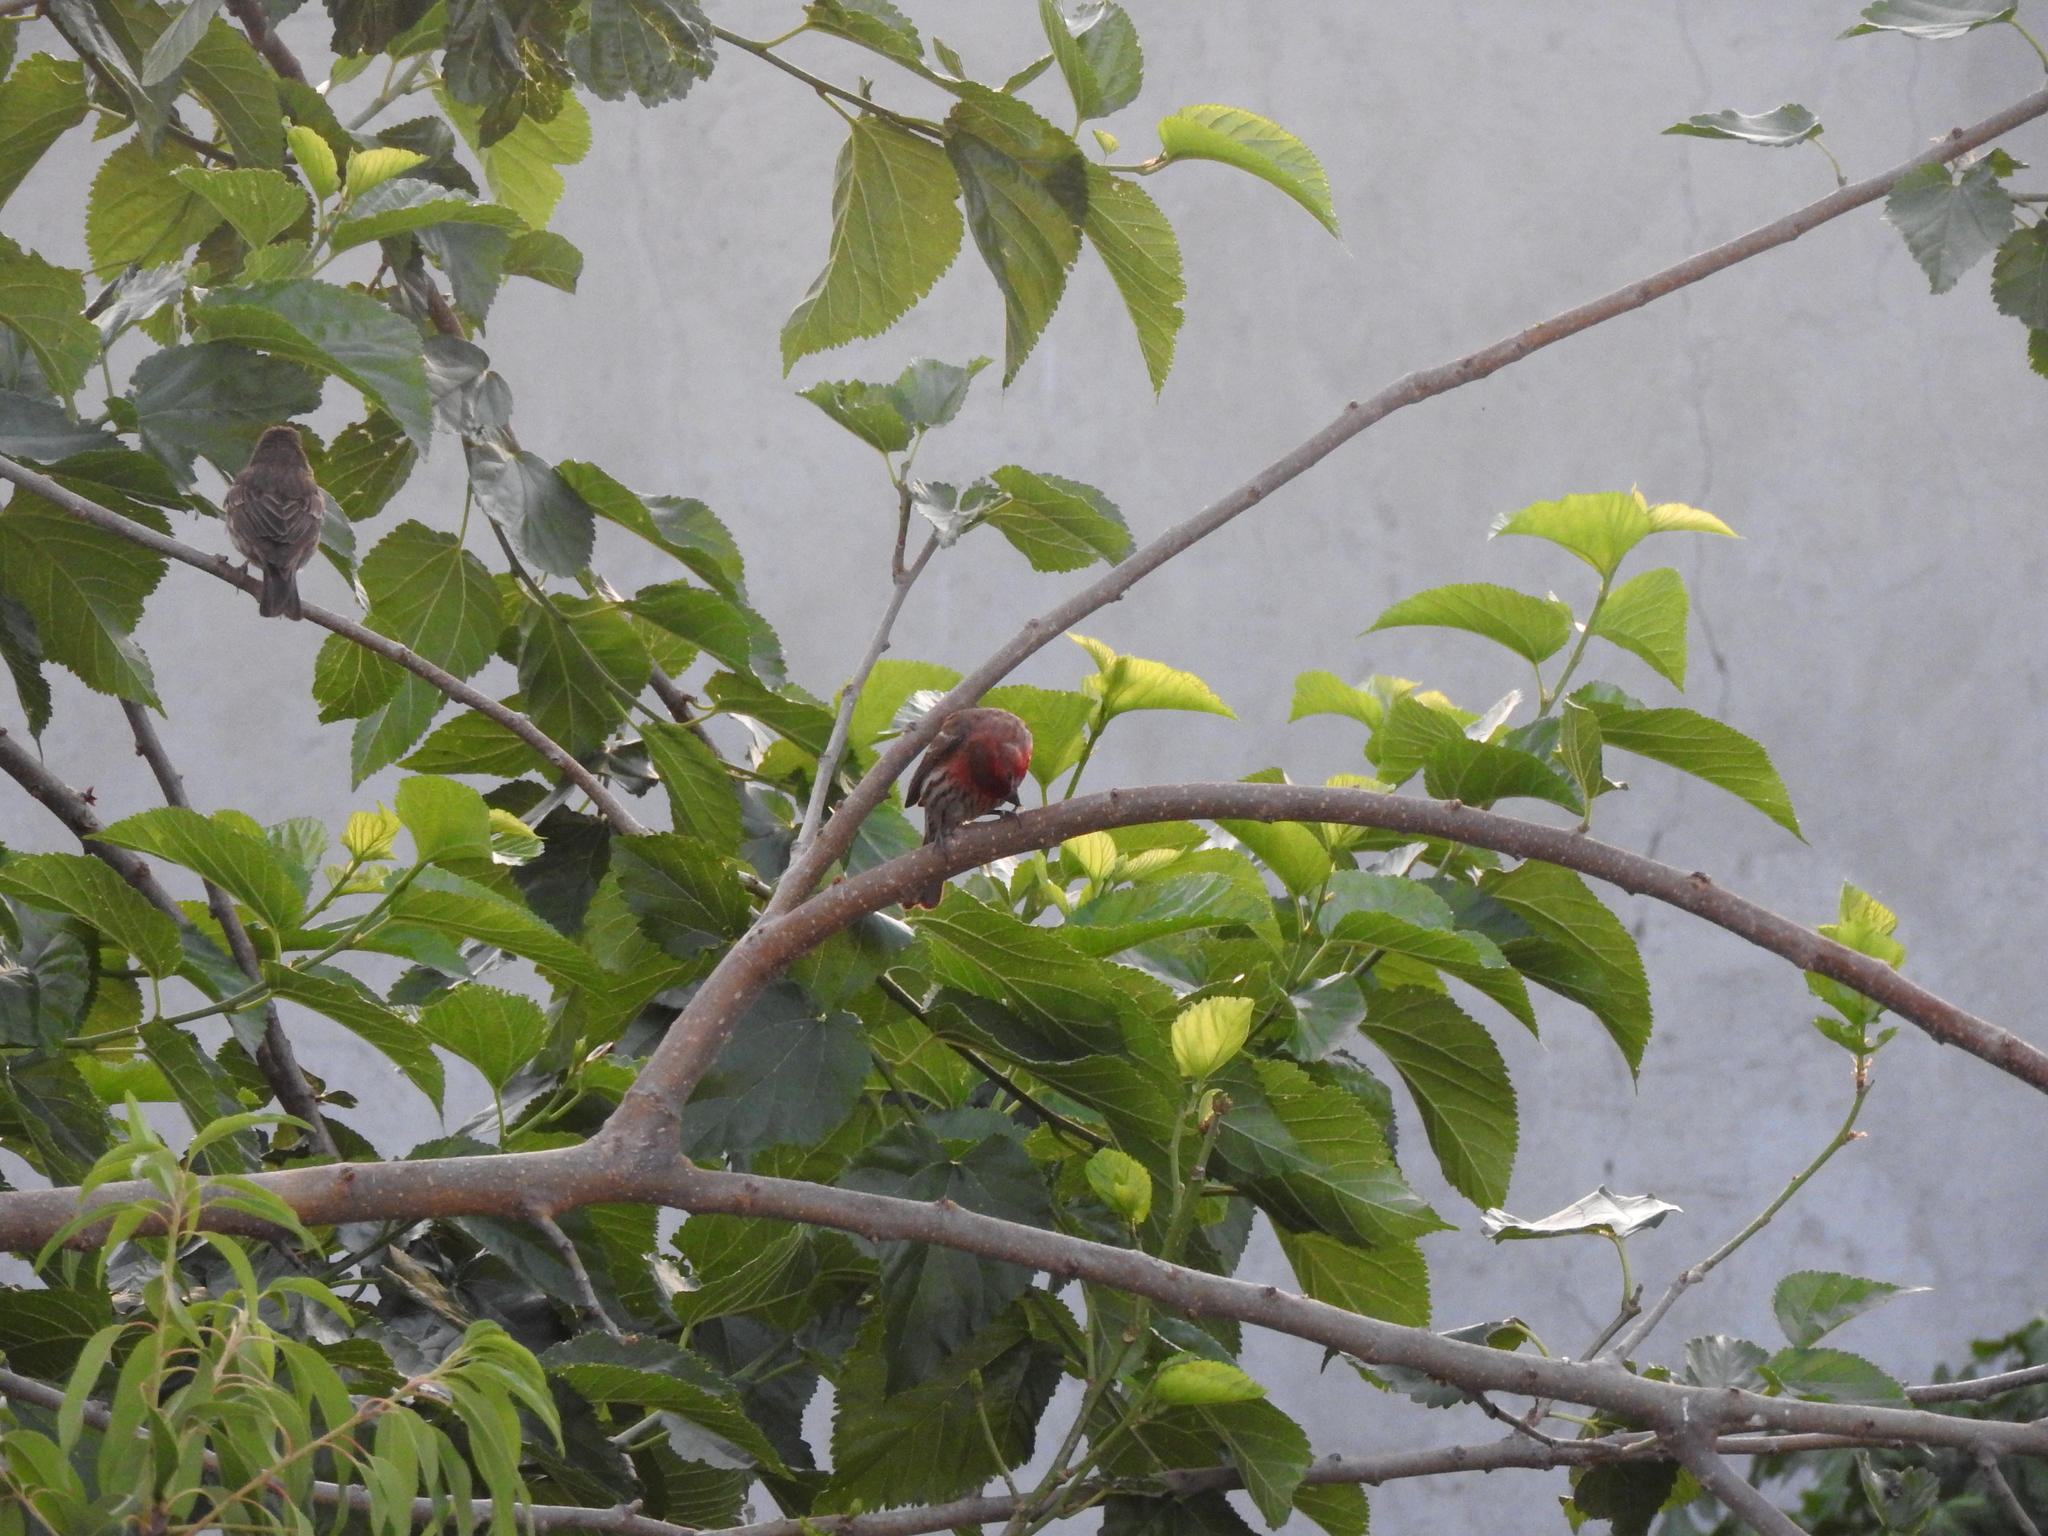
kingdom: Animalia
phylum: Chordata
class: Aves
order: Passeriformes
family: Fringillidae
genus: Haemorhous
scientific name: Haemorhous mexicanus
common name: House finch
